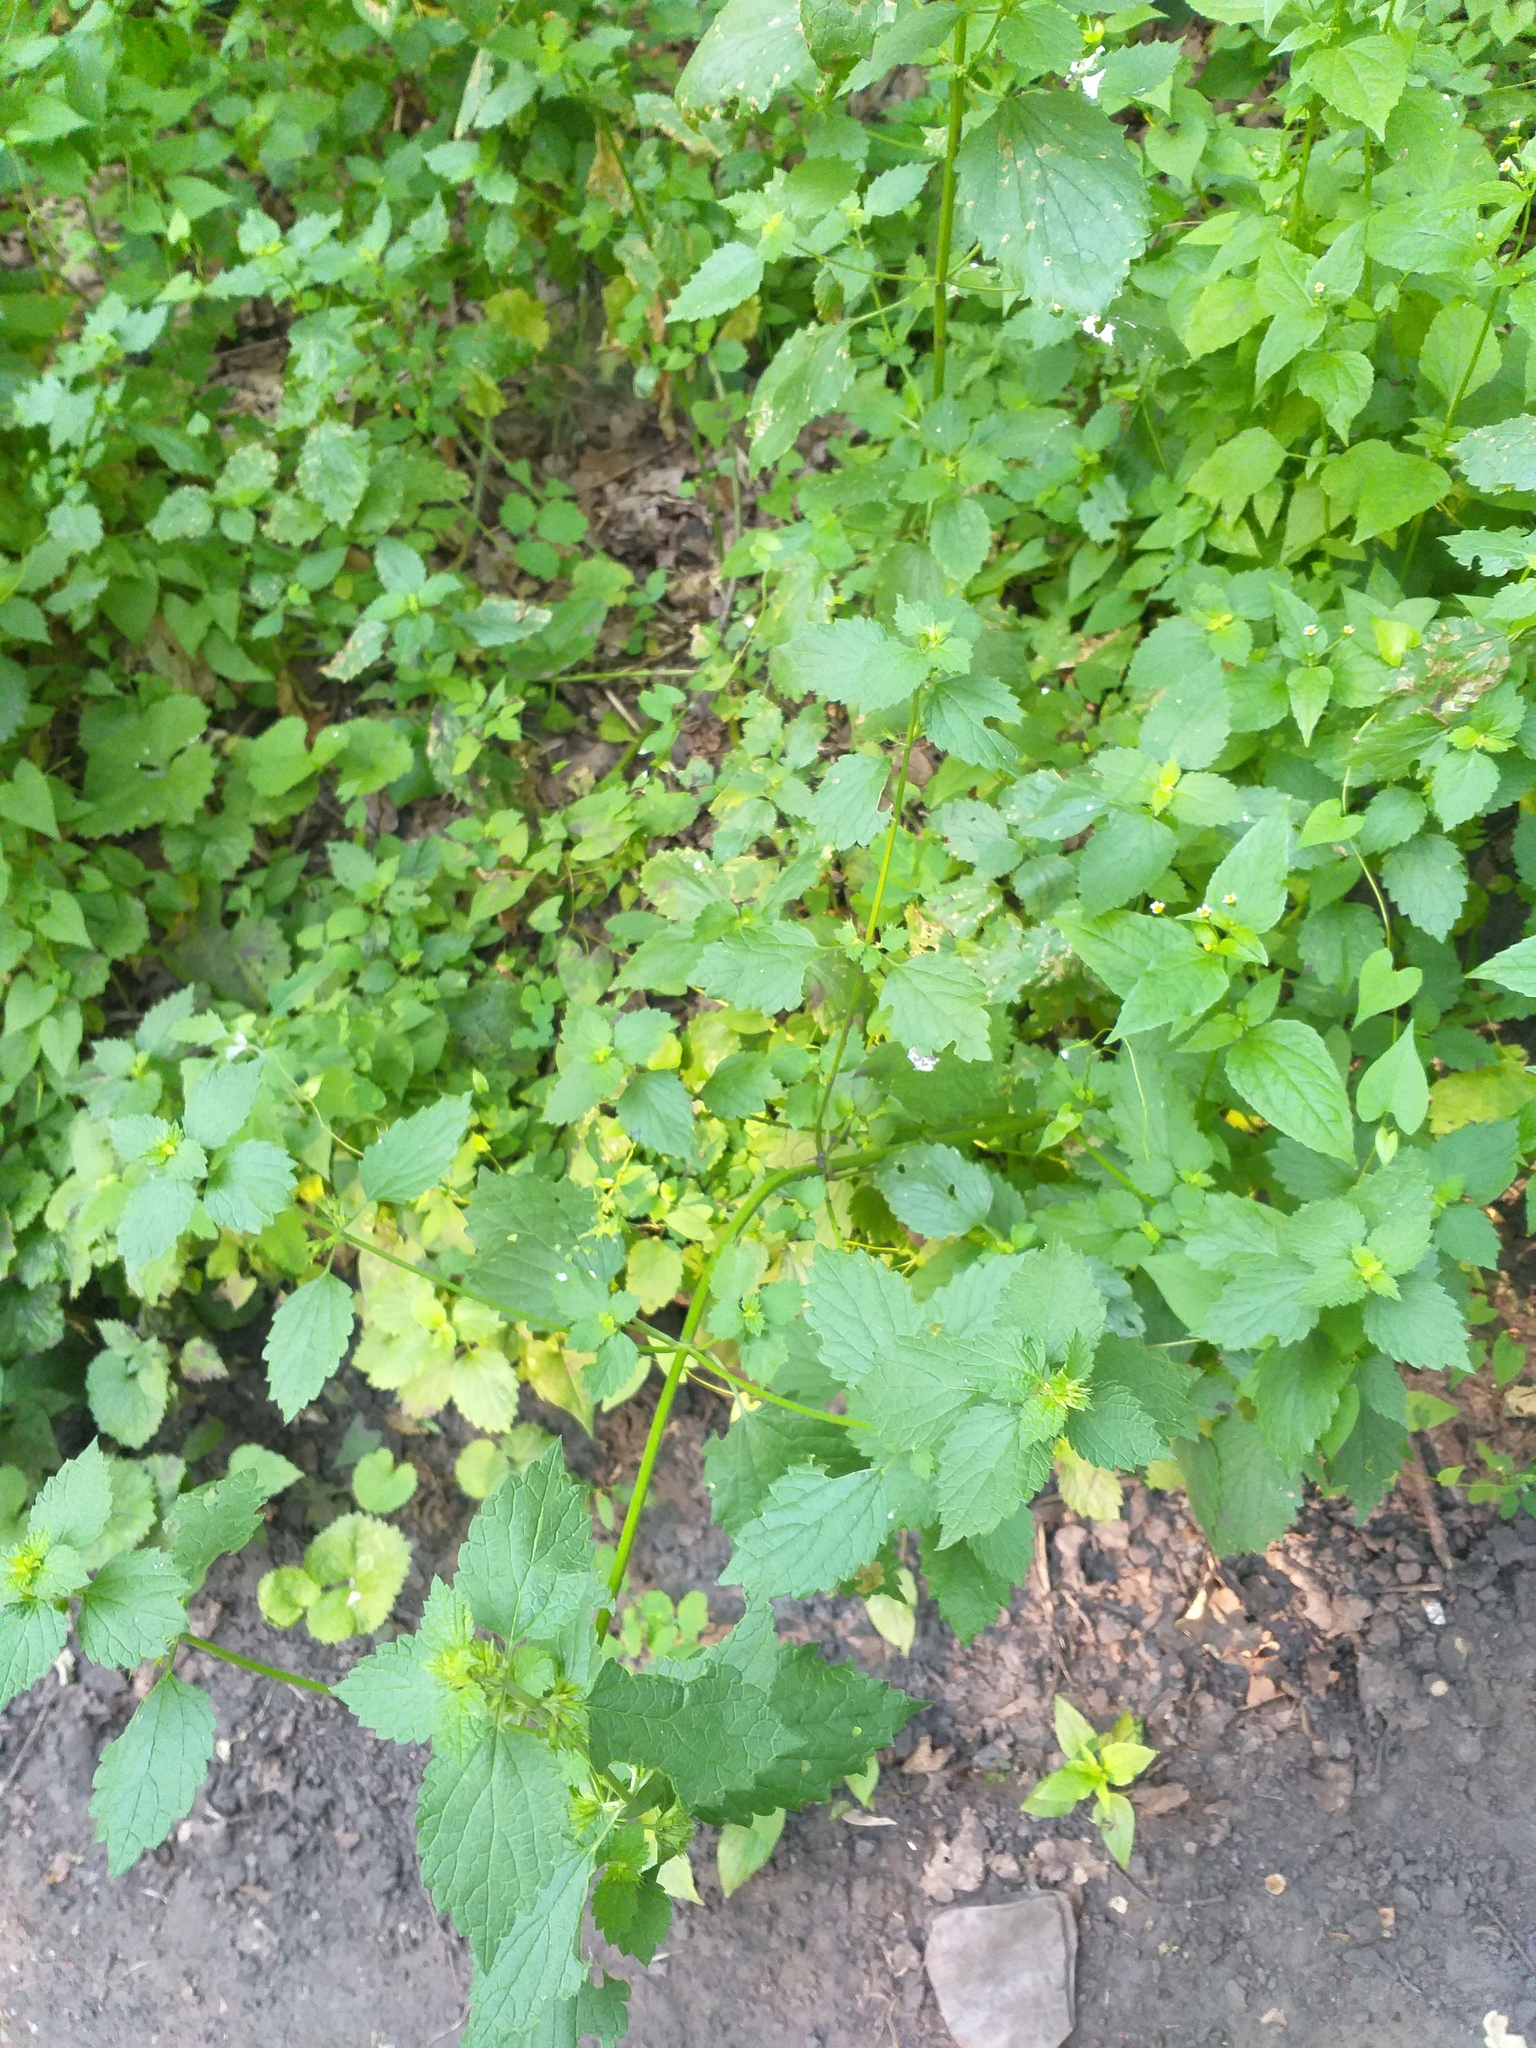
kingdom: Plantae
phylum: Tracheophyta
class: Magnoliopsida
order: Lamiales
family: Lamiaceae
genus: Ballota
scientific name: Ballota nigra
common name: Black horehound
